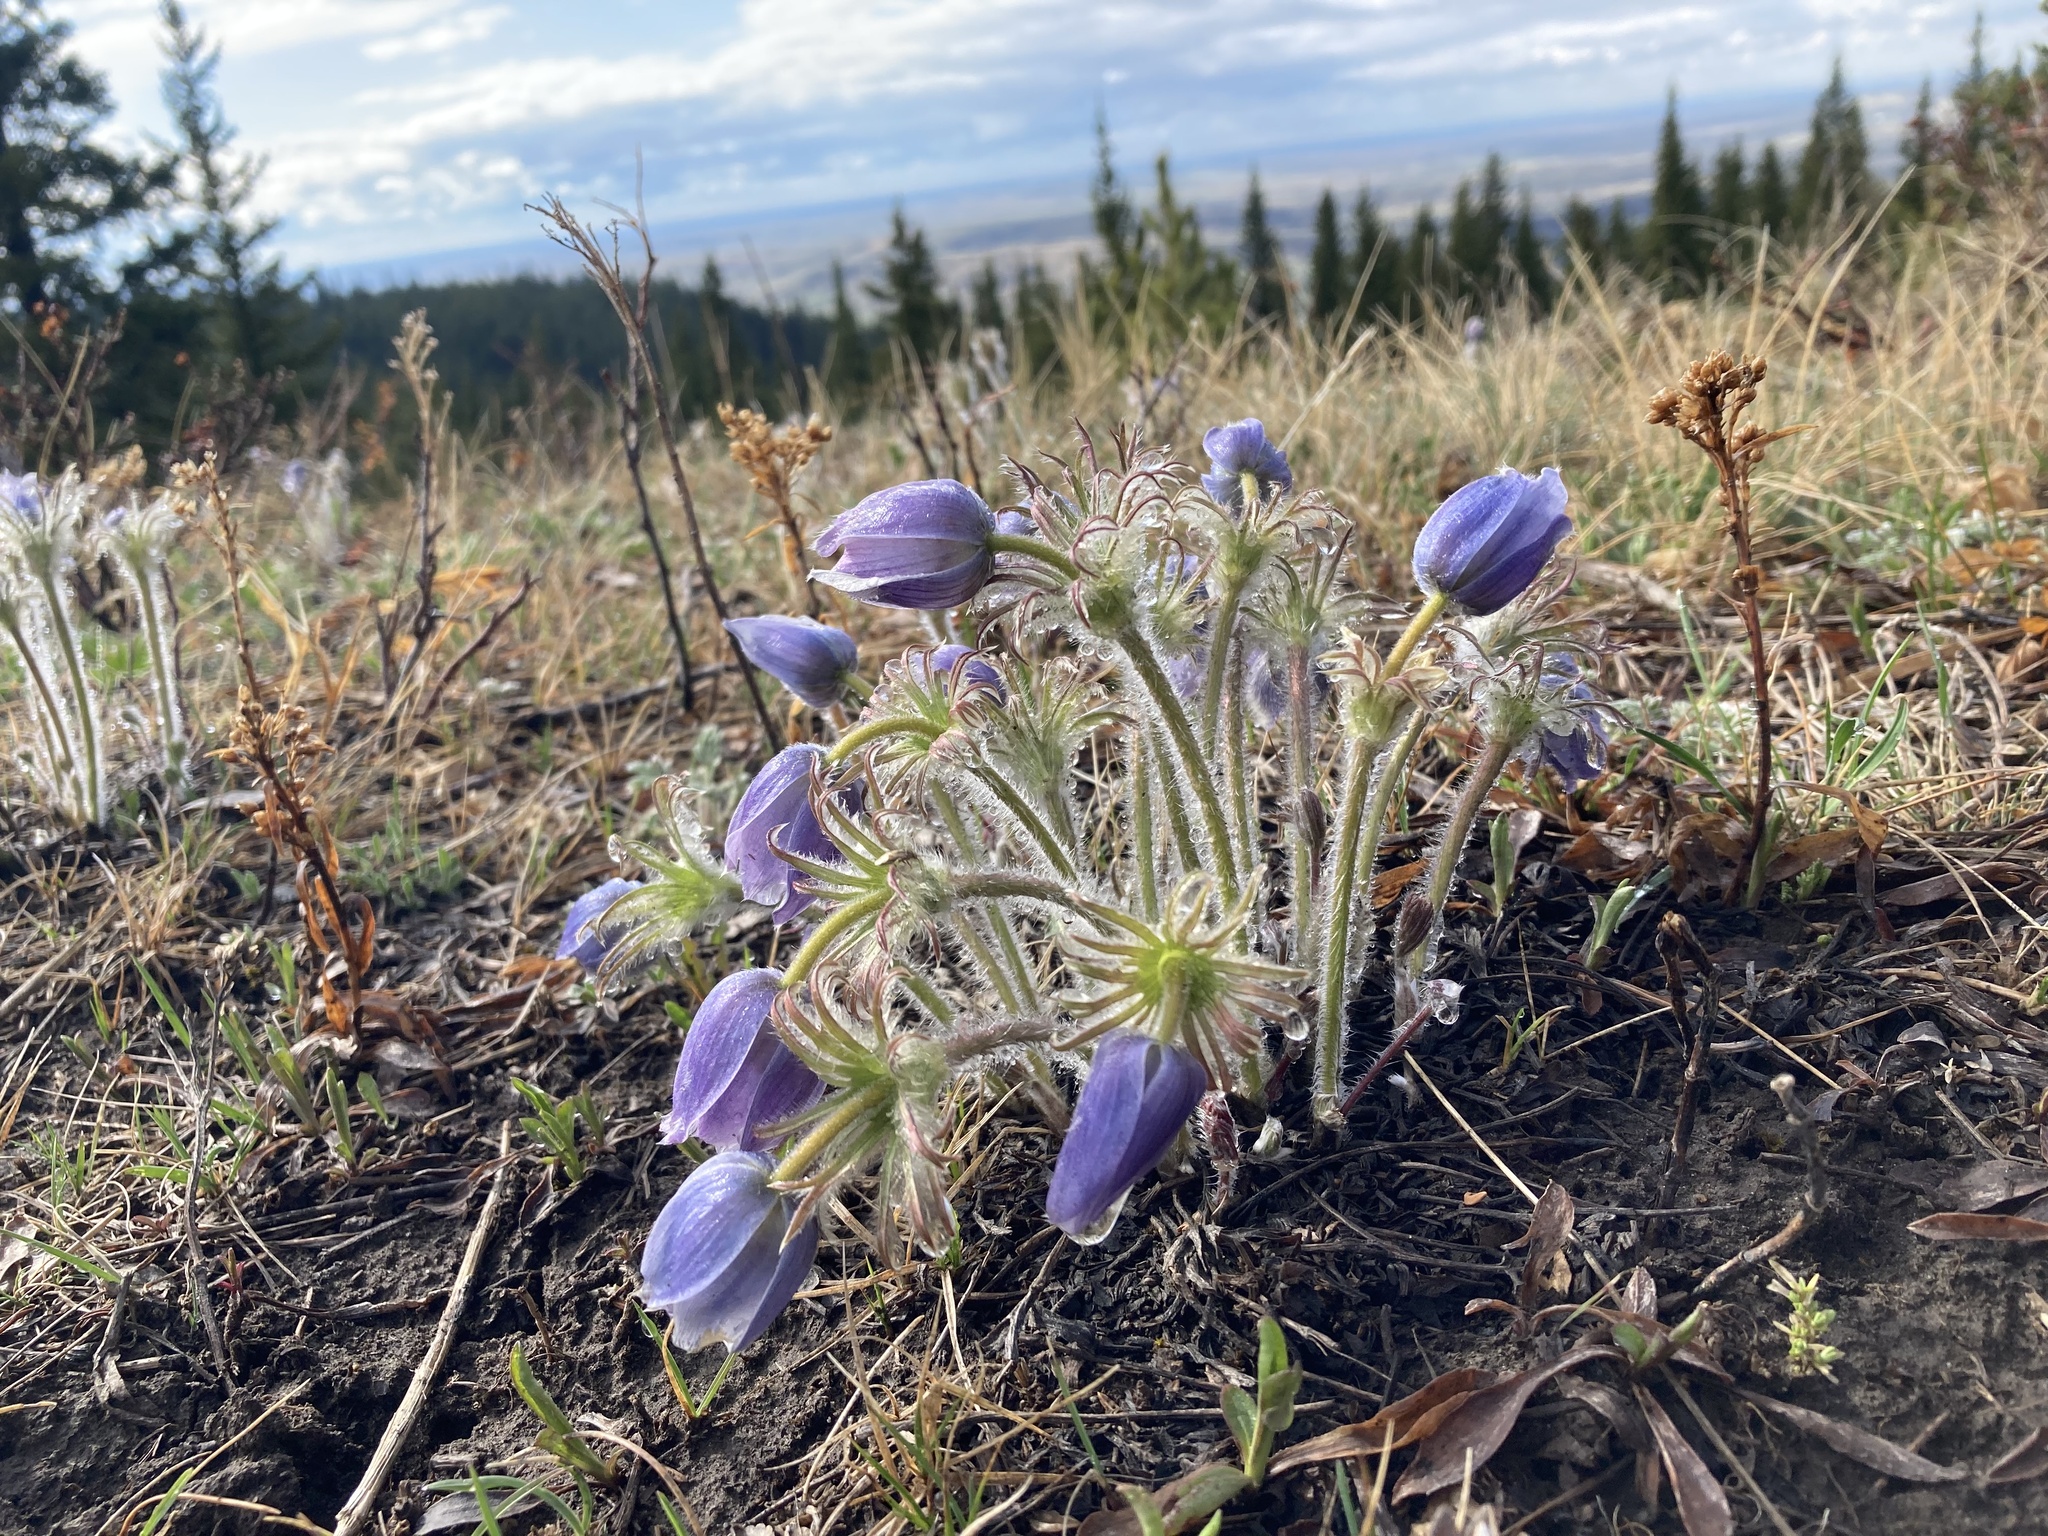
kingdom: Plantae
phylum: Tracheophyta
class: Magnoliopsida
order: Ranunculales
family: Ranunculaceae
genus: Pulsatilla
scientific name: Pulsatilla nuttalliana
